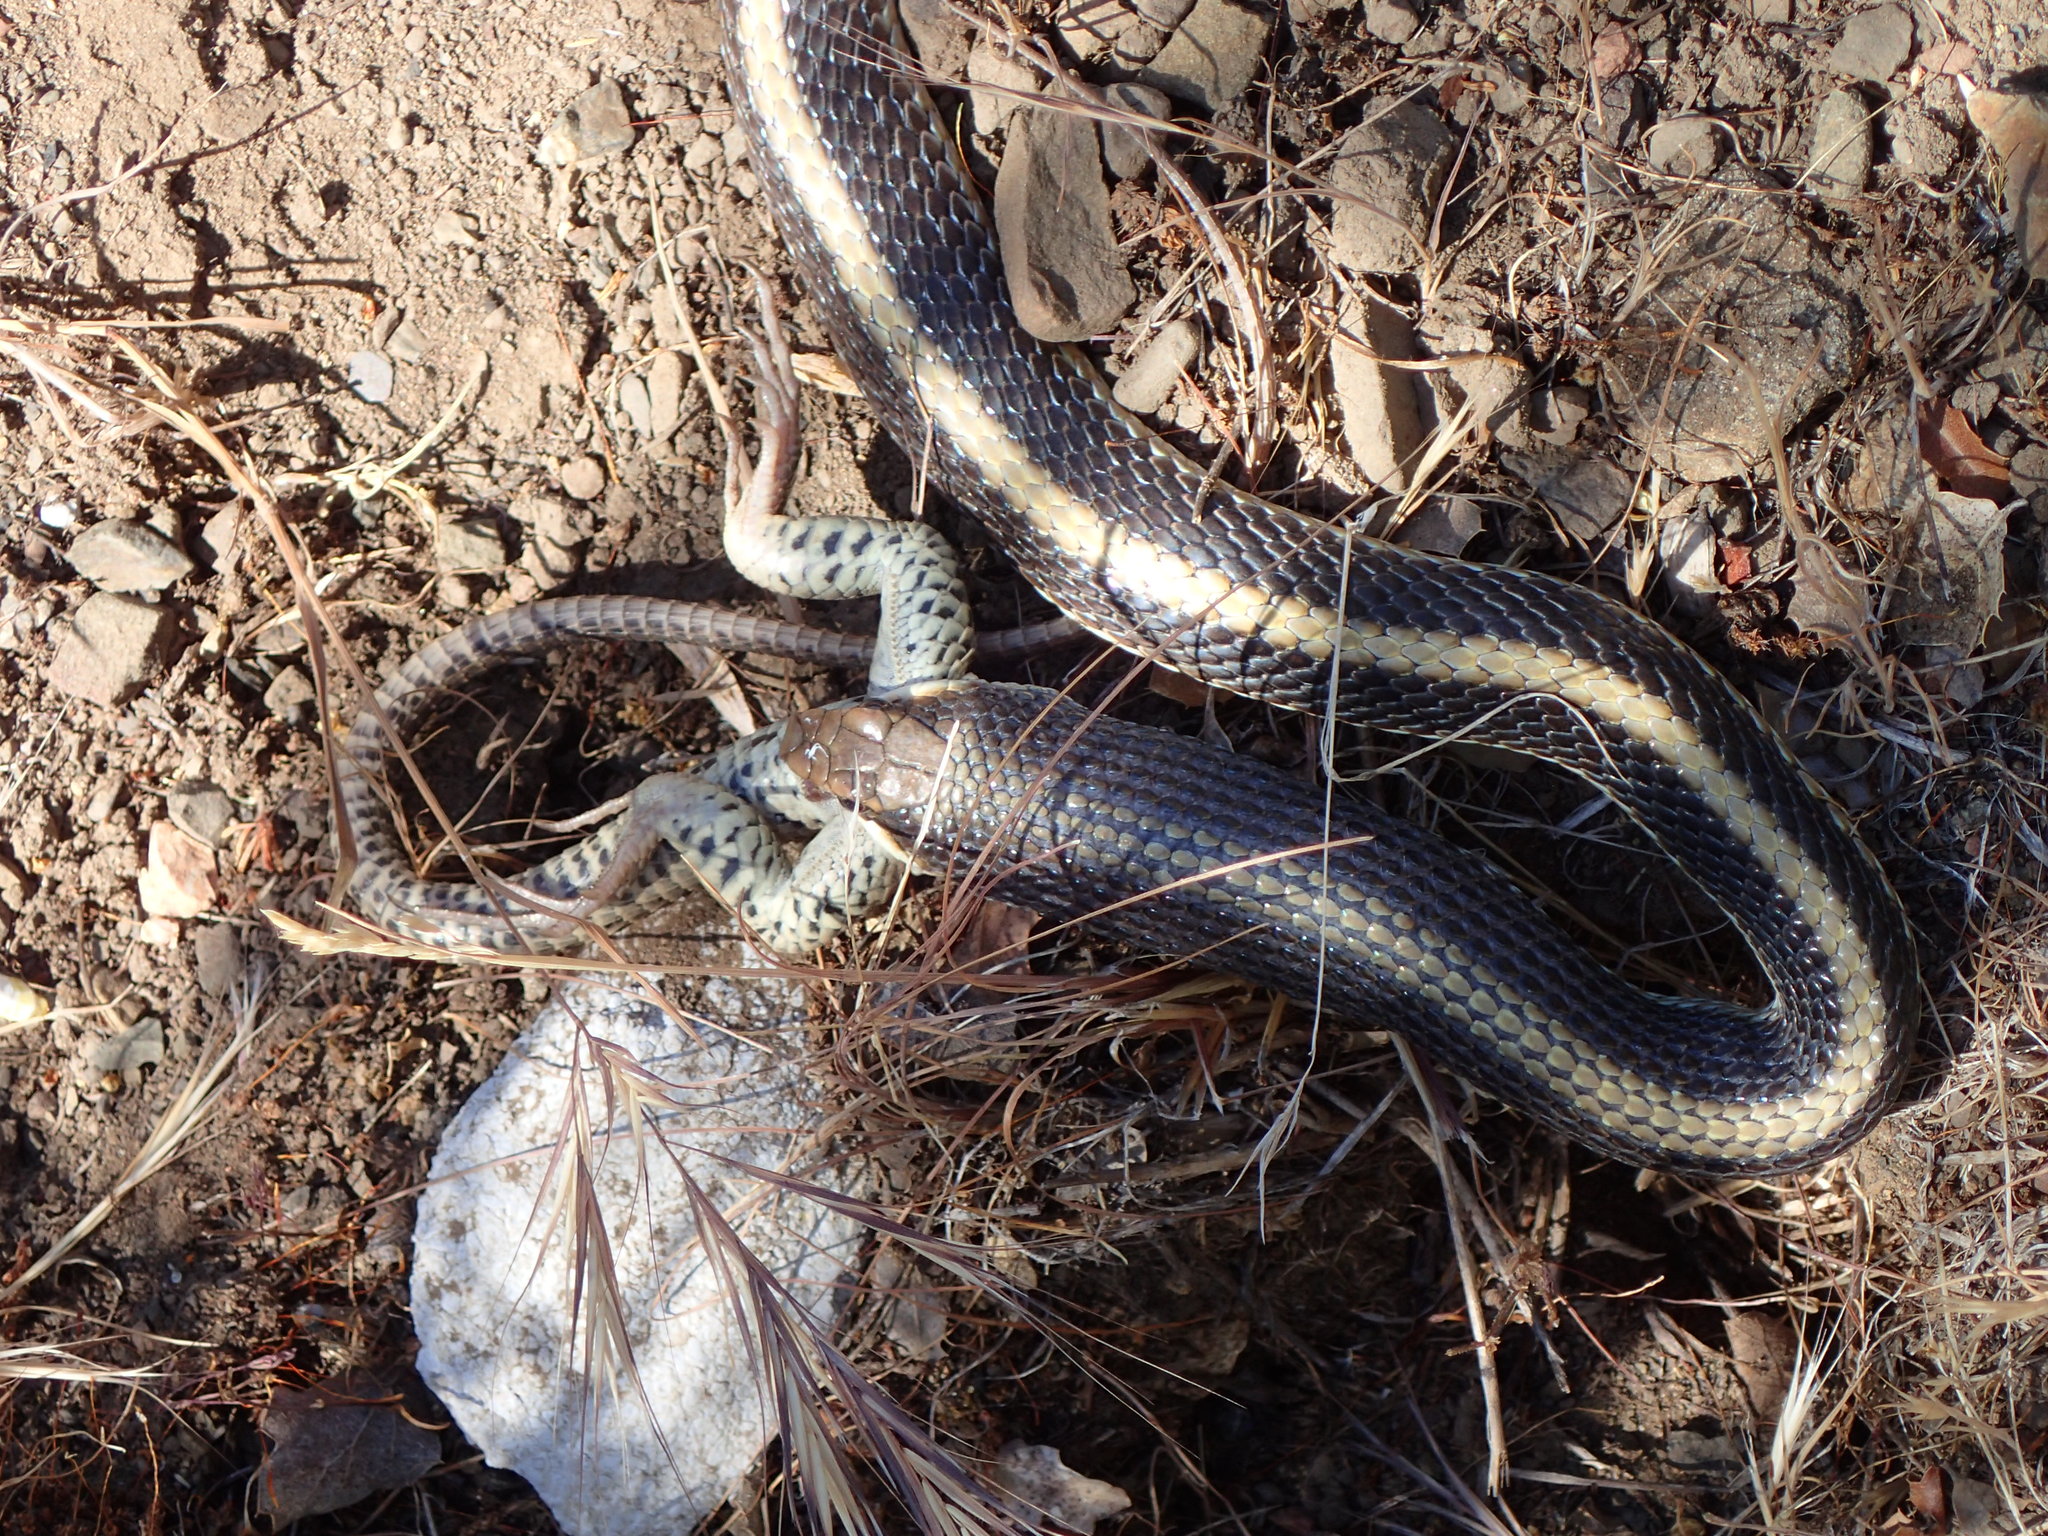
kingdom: Animalia
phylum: Chordata
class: Squamata
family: Teiidae
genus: Aspidoscelis
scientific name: Aspidoscelis tigris
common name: Tiger whiptail
